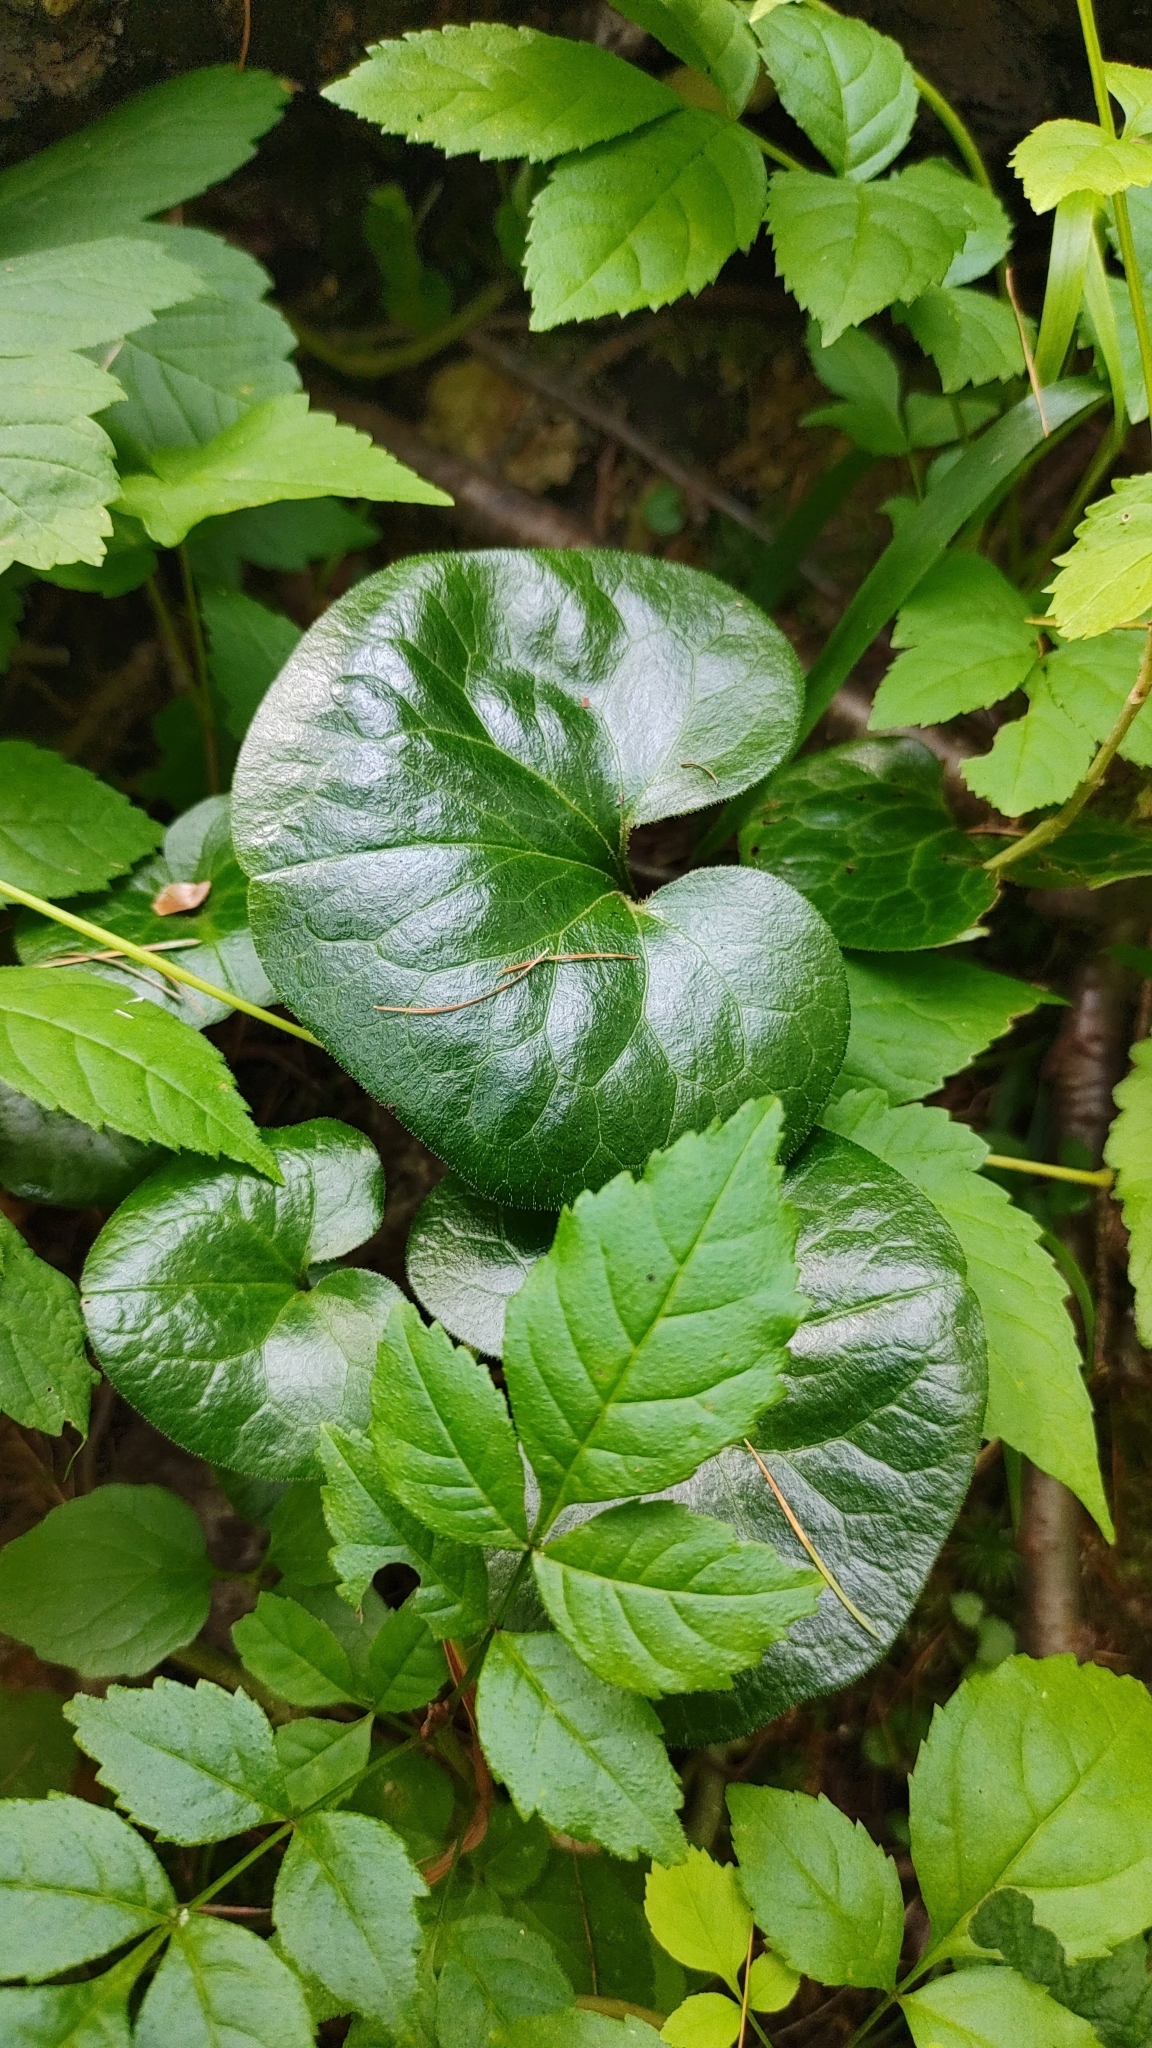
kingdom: Plantae
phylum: Tracheophyta
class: Magnoliopsida
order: Piperales
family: Aristolochiaceae
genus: Asarum
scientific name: Asarum europaeum
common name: Asarabacca
